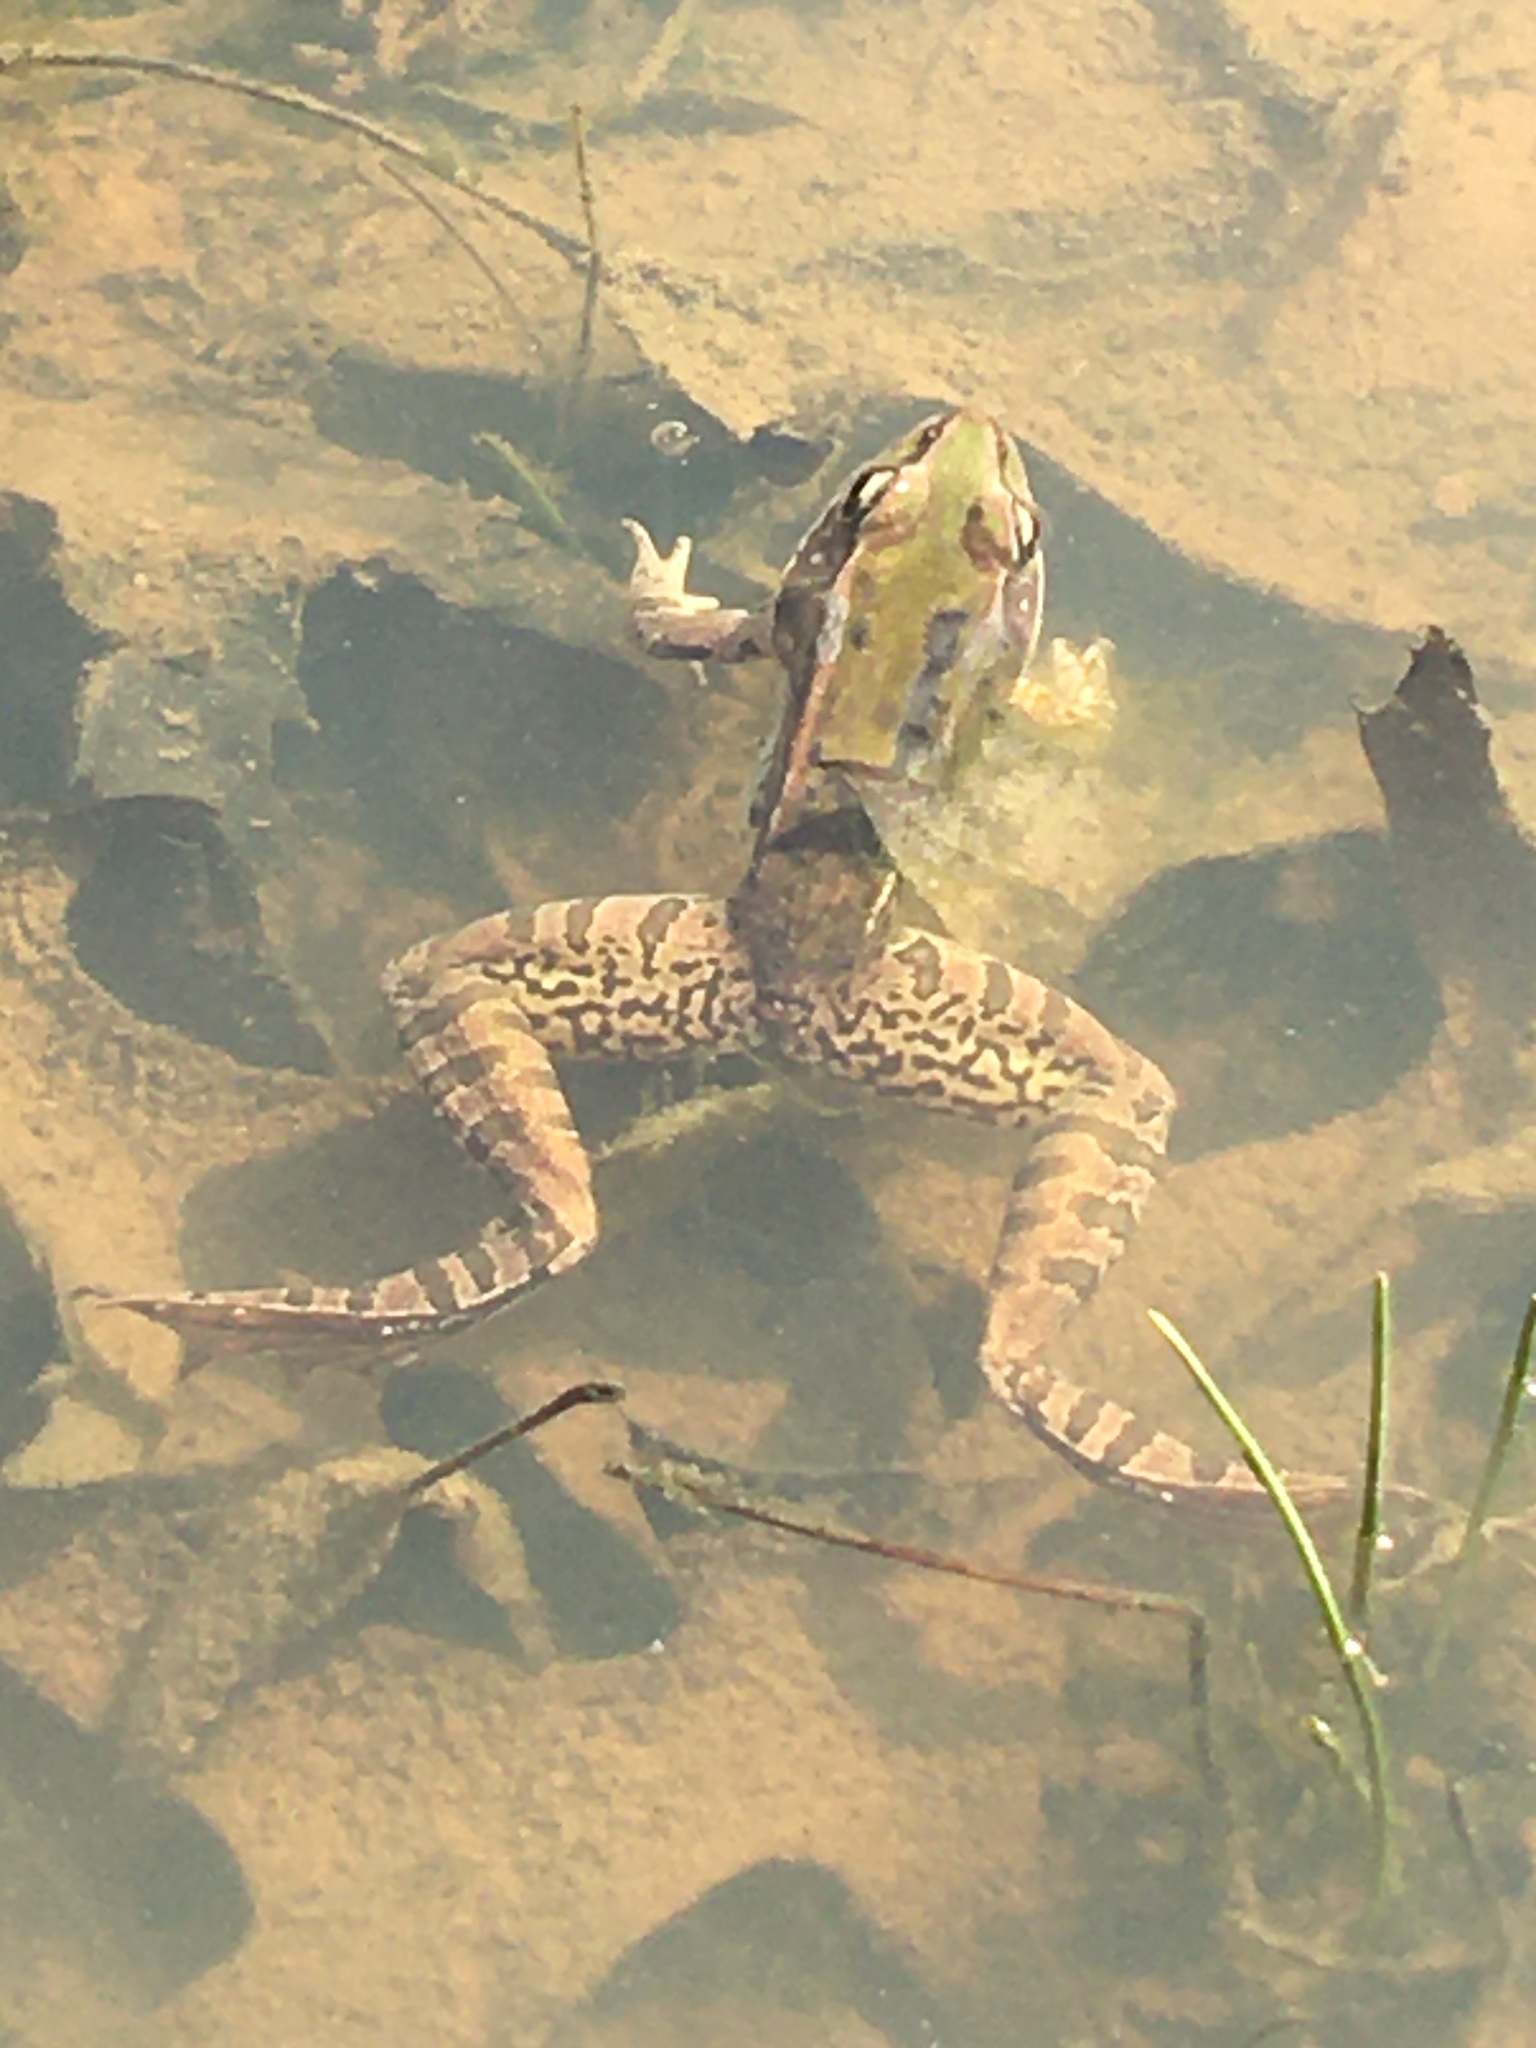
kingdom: Animalia
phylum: Chordata
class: Amphibia
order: Anura
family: Ranidae
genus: Lithobates
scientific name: Lithobates sphenocephalus
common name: Southern leopard frog
